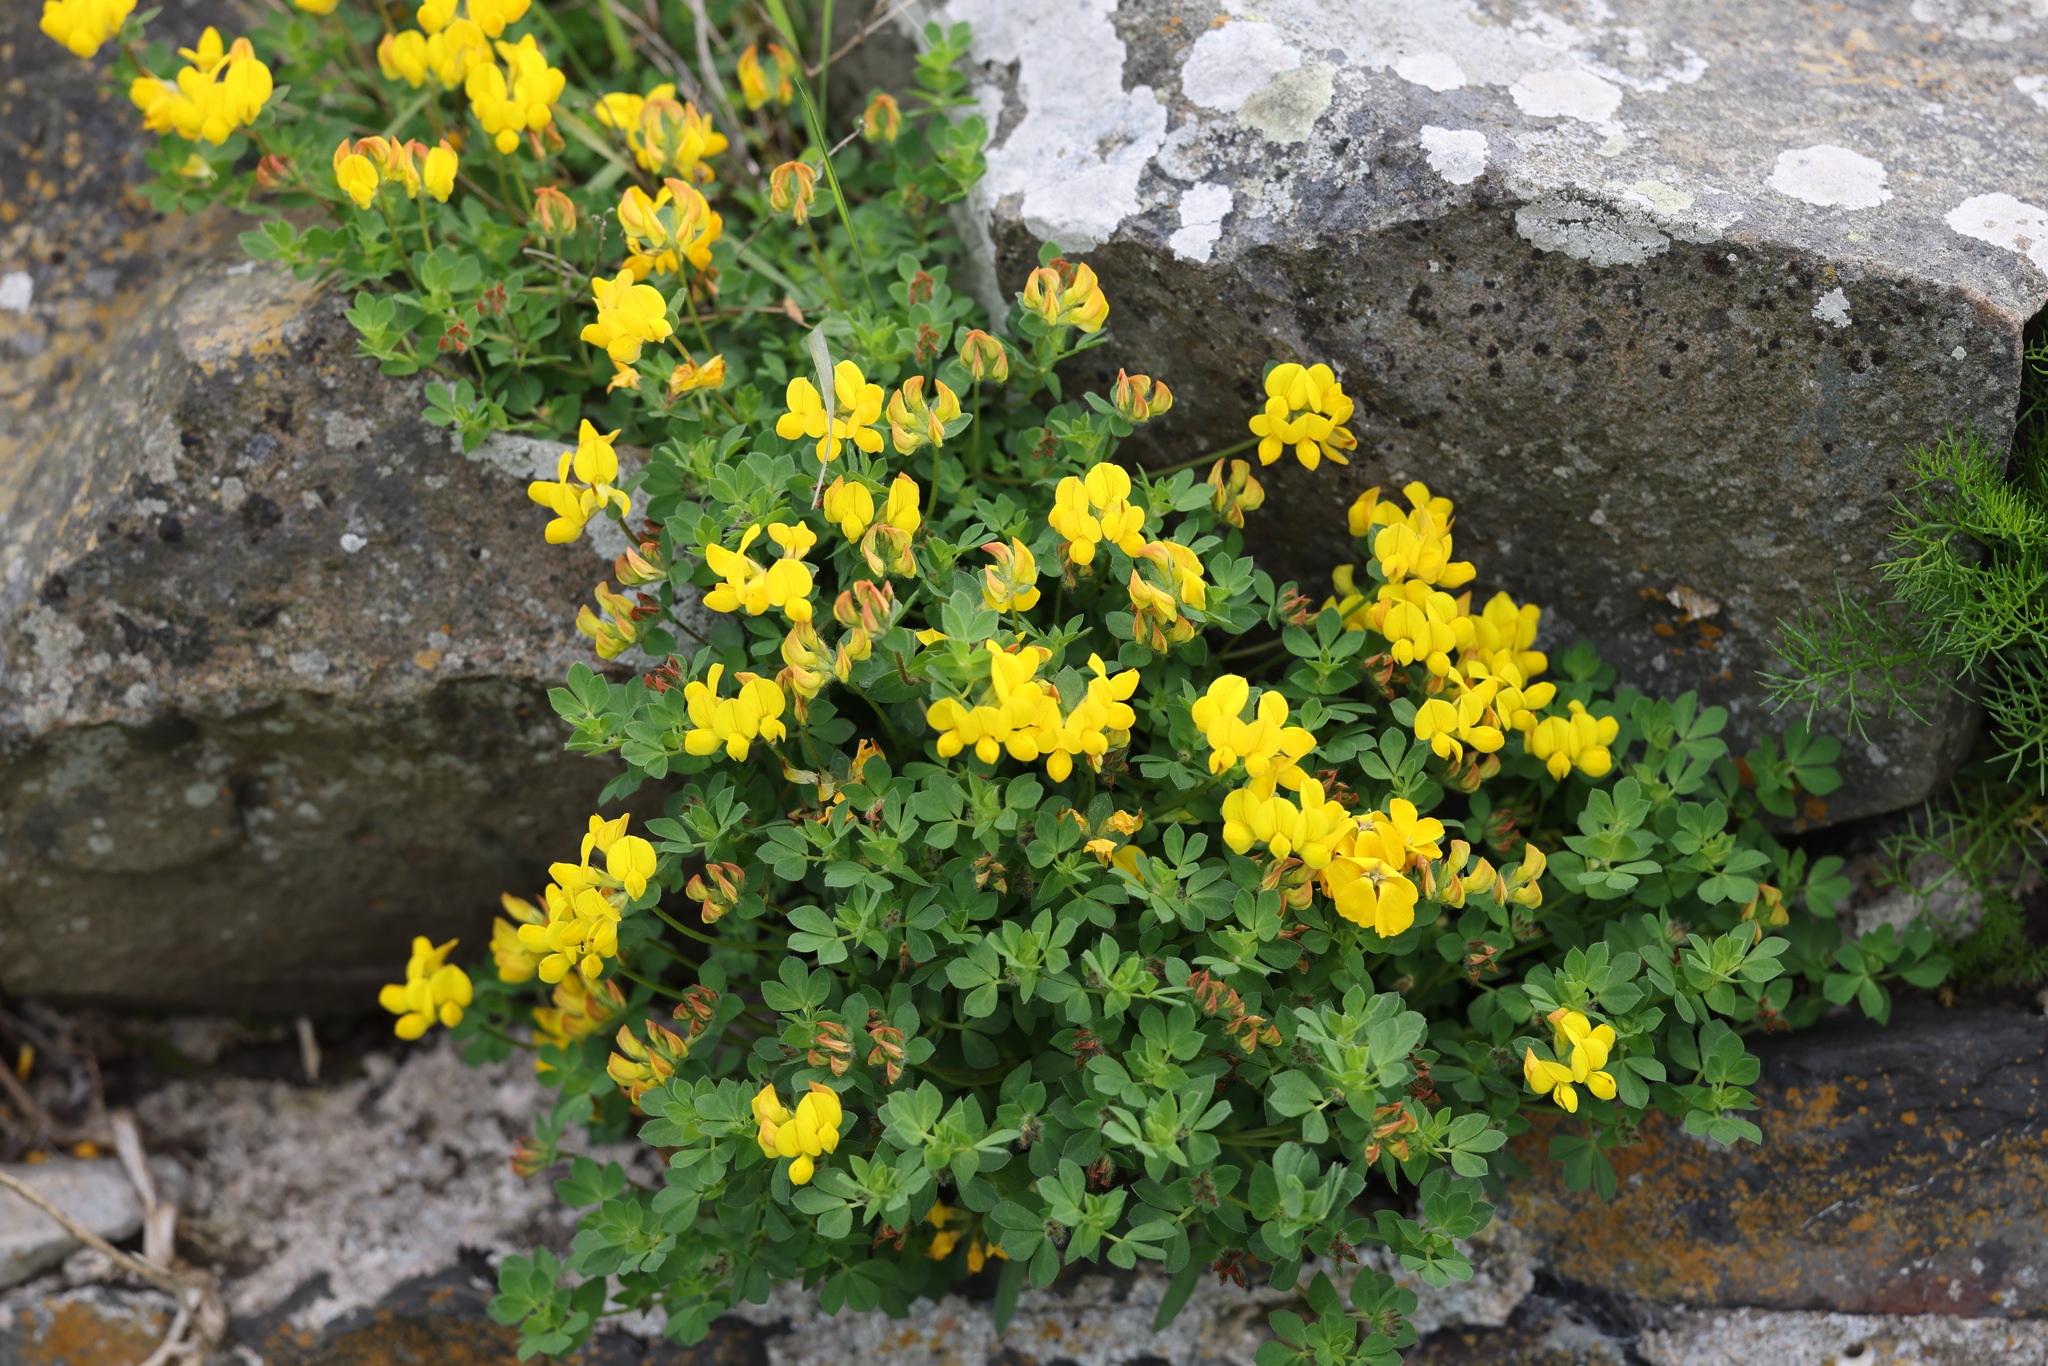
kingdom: Plantae
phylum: Tracheophyta
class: Magnoliopsida
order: Fabales
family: Fabaceae
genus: Lotus
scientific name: Lotus corniculatus
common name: Common bird's-foot-trefoil
